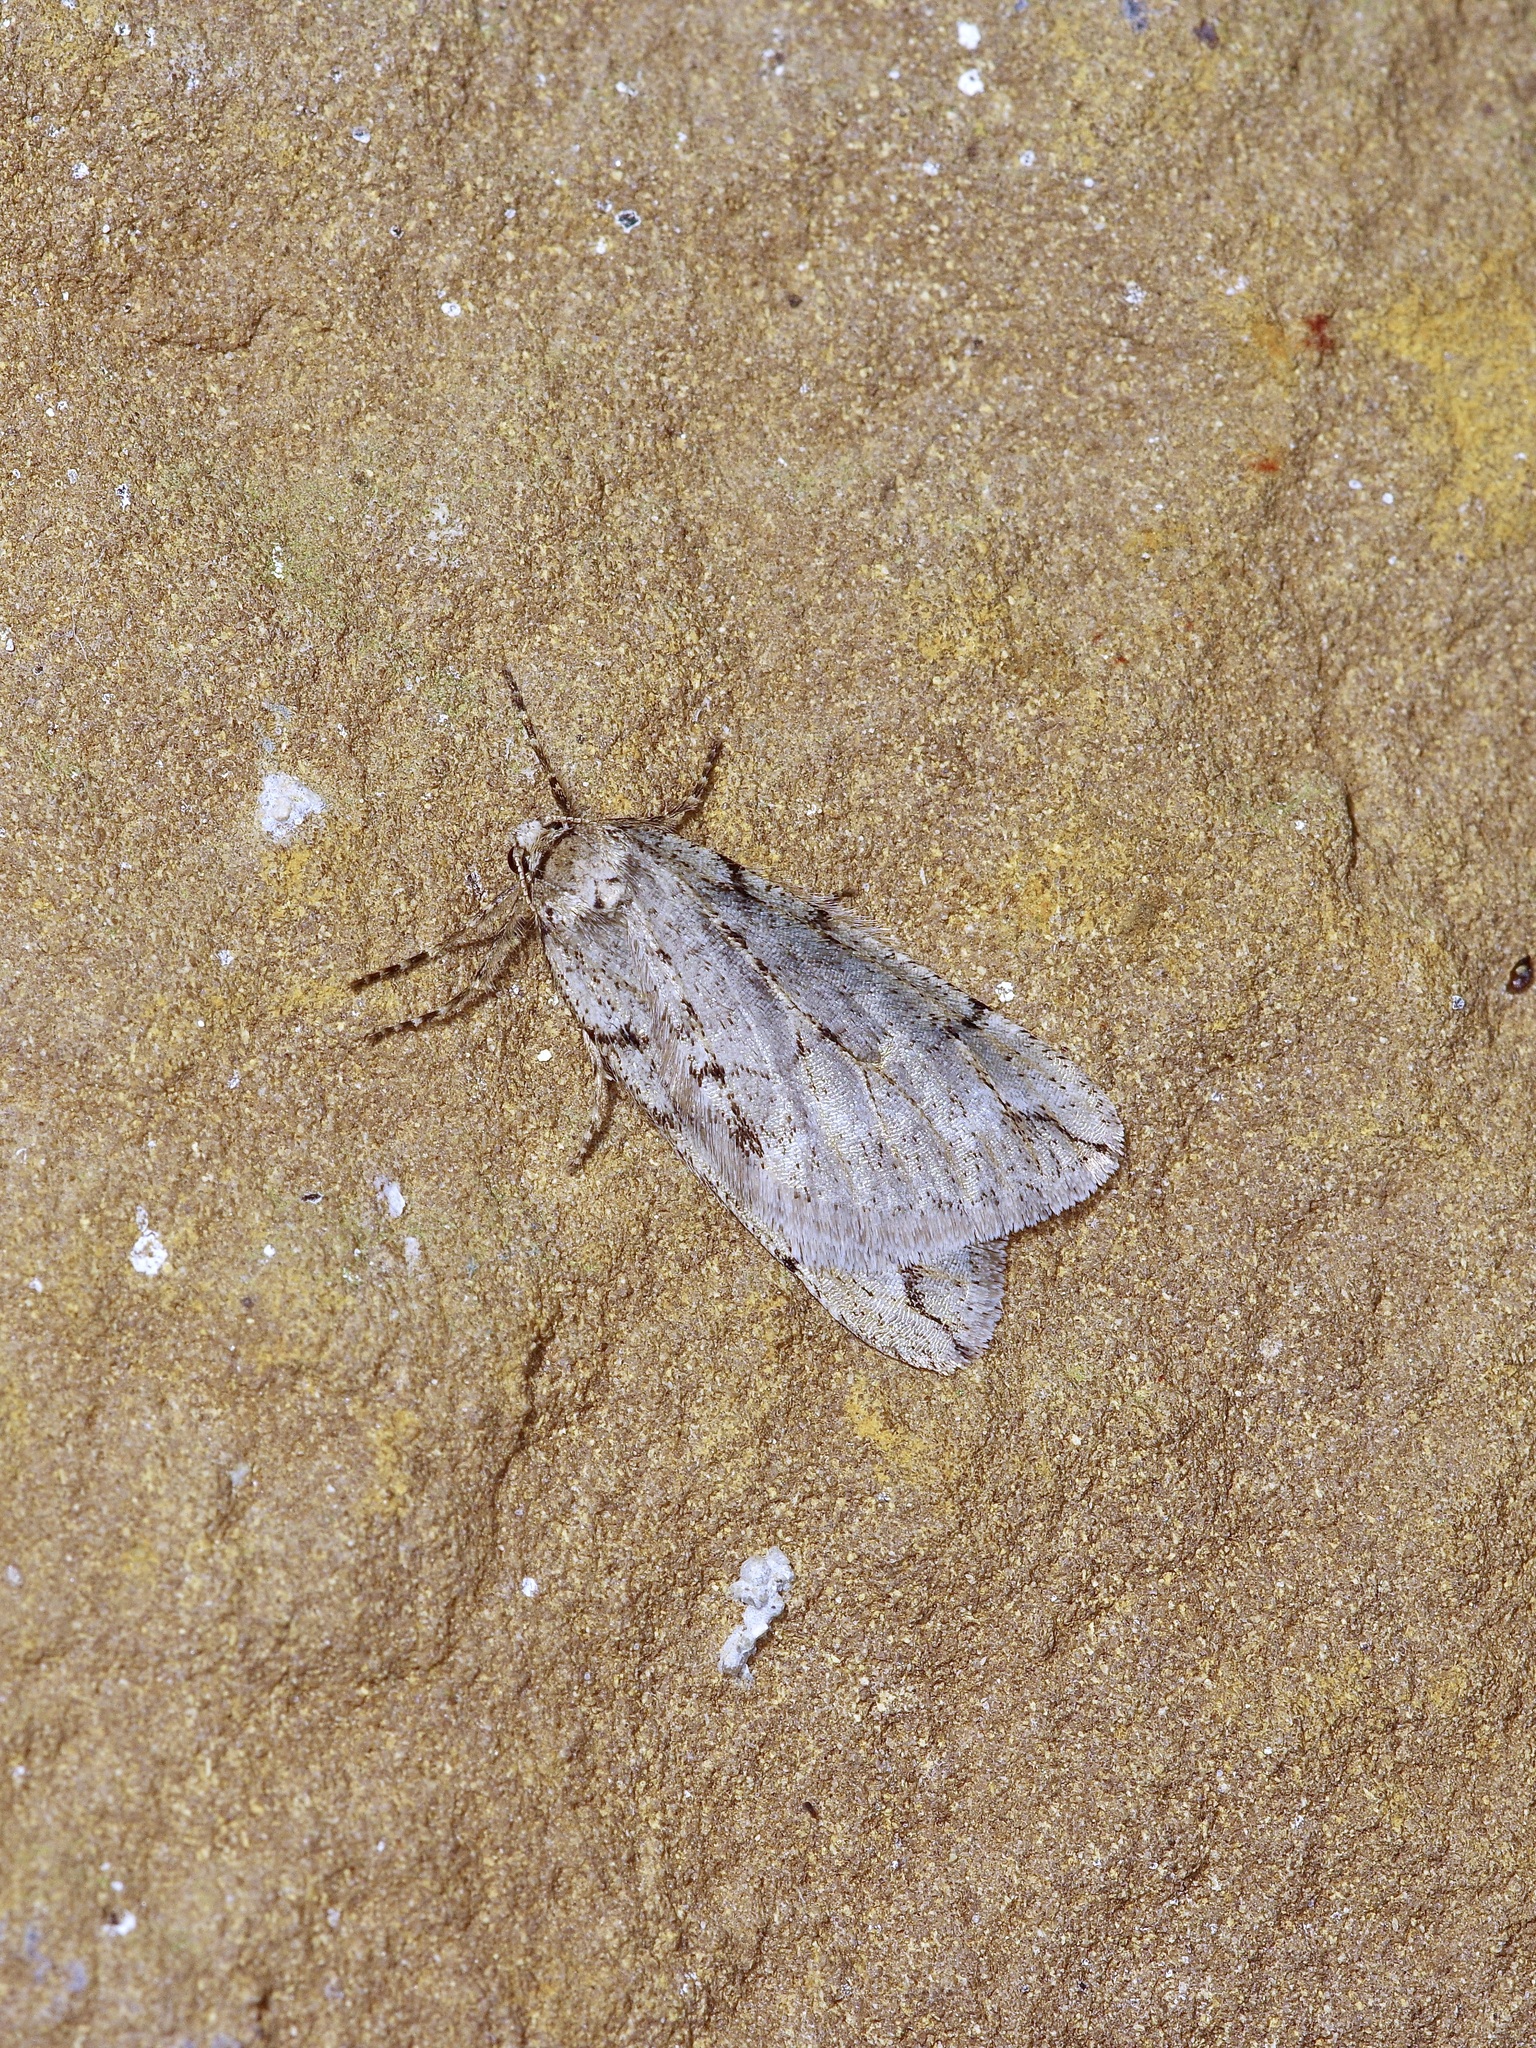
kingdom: Animalia
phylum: Arthropoda
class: Insecta
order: Lepidoptera
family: Geometridae
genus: Paleacrita
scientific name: Paleacrita vernata
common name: Spring cankerworm
